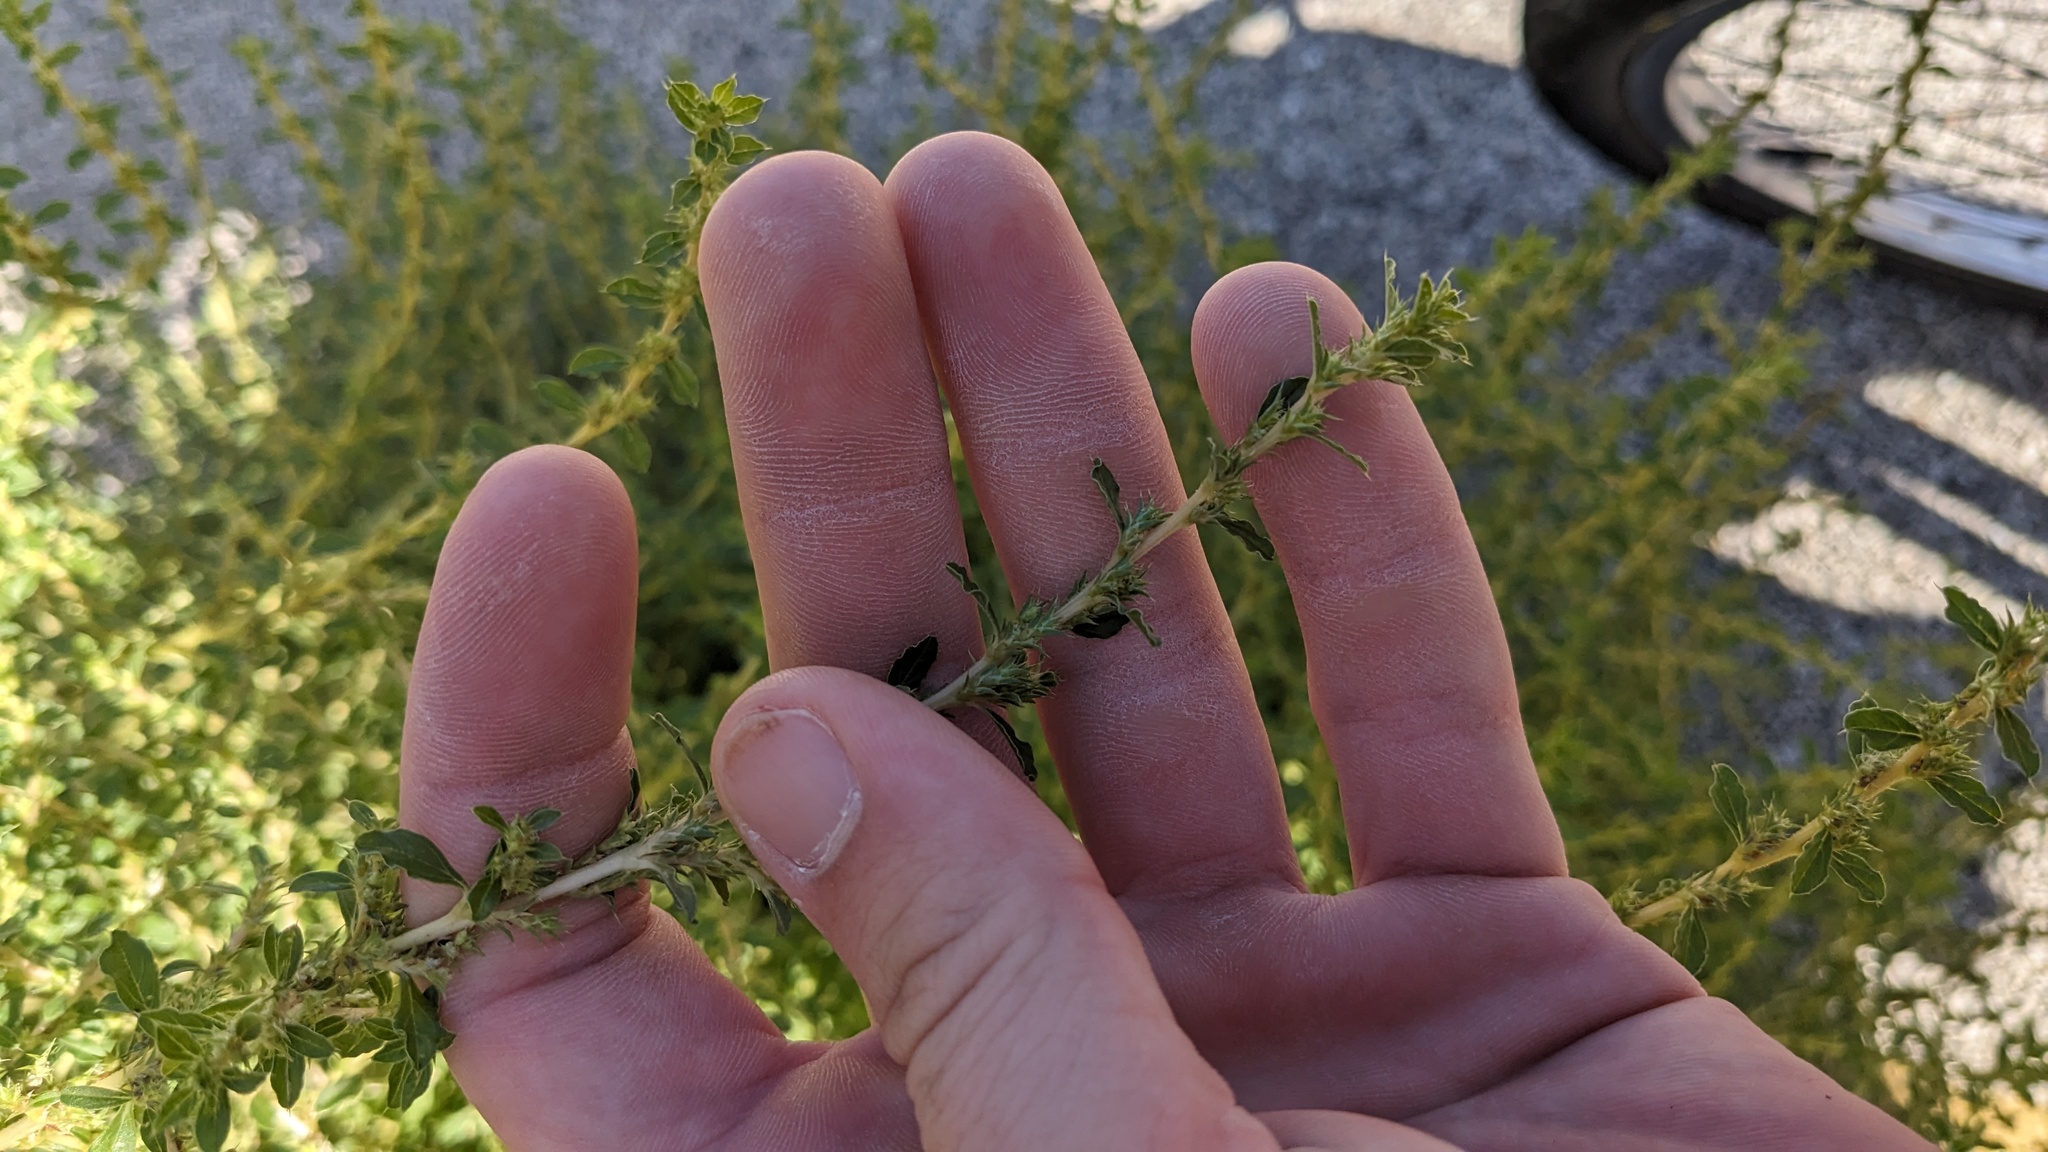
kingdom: Plantae
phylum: Tracheophyta
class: Magnoliopsida
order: Caryophyllales
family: Amaranthaceae
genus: Amaranthus
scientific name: Amaranthus albus
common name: White pigweed
